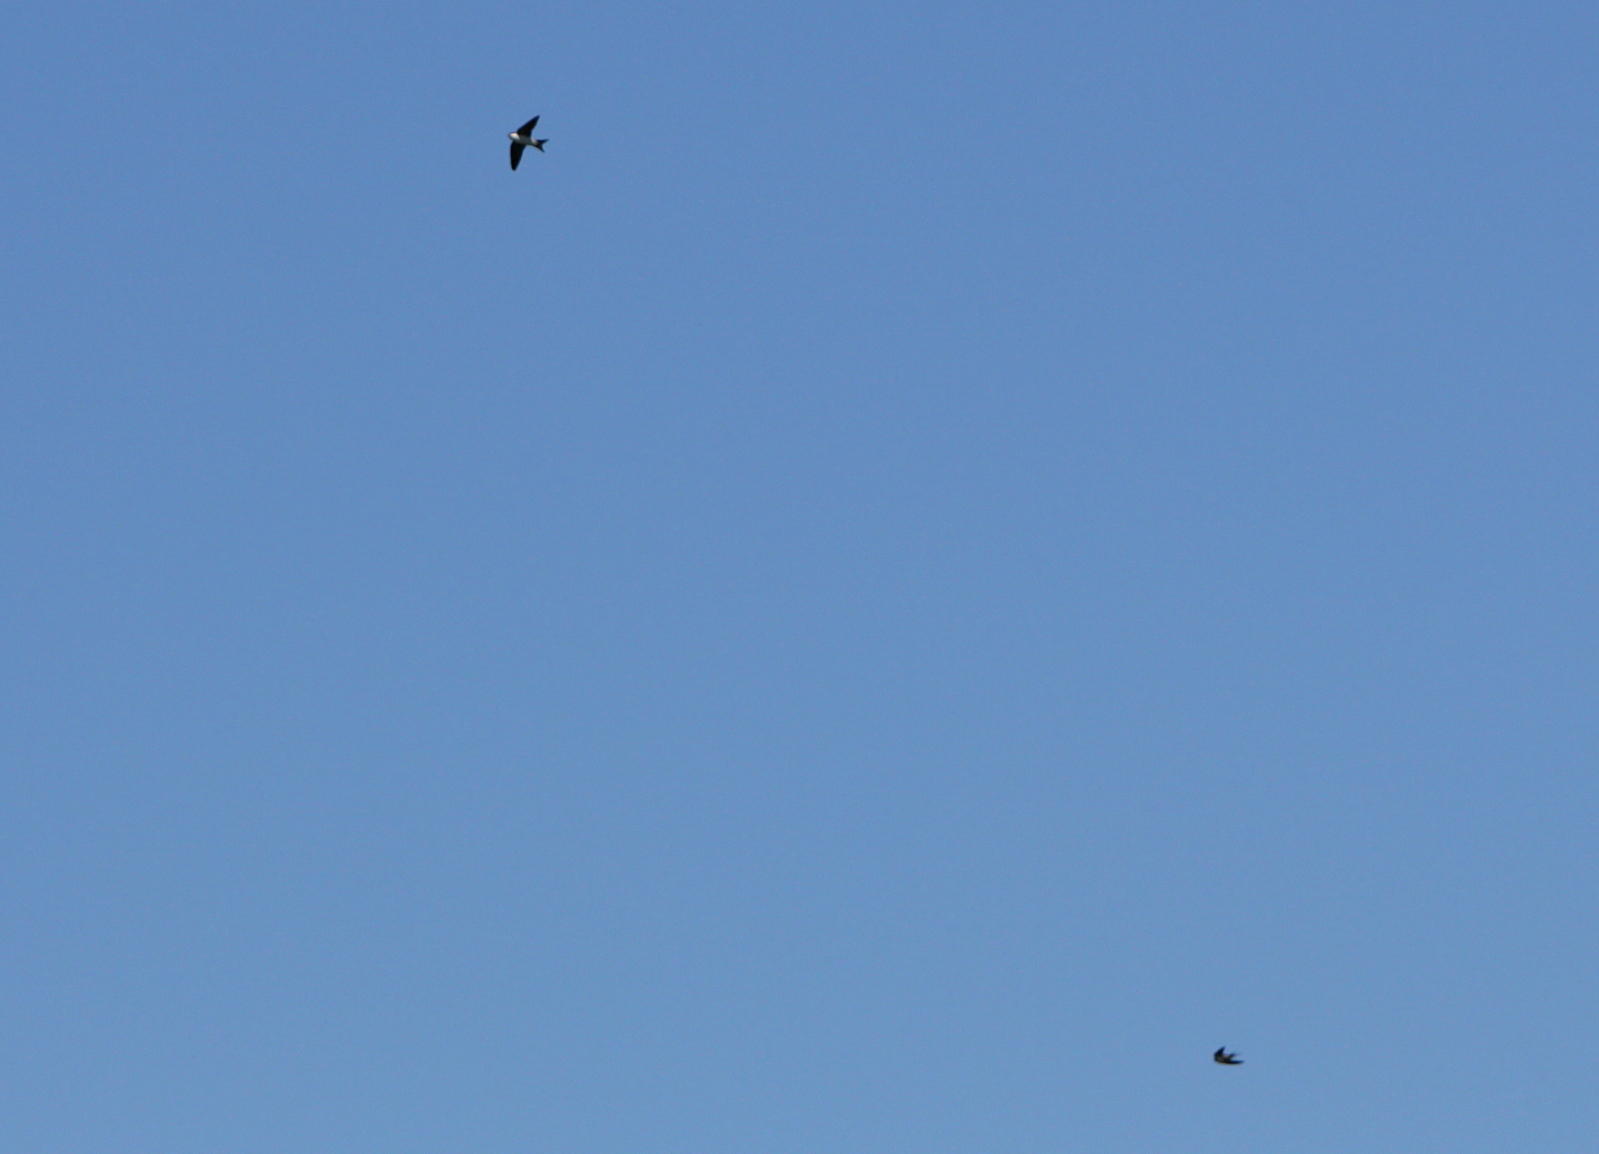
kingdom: Animalia
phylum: Chordata
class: Aves
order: Passeriformes
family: Hirundinidae
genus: Delichon
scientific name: Delichon urbicum
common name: Common house martin
